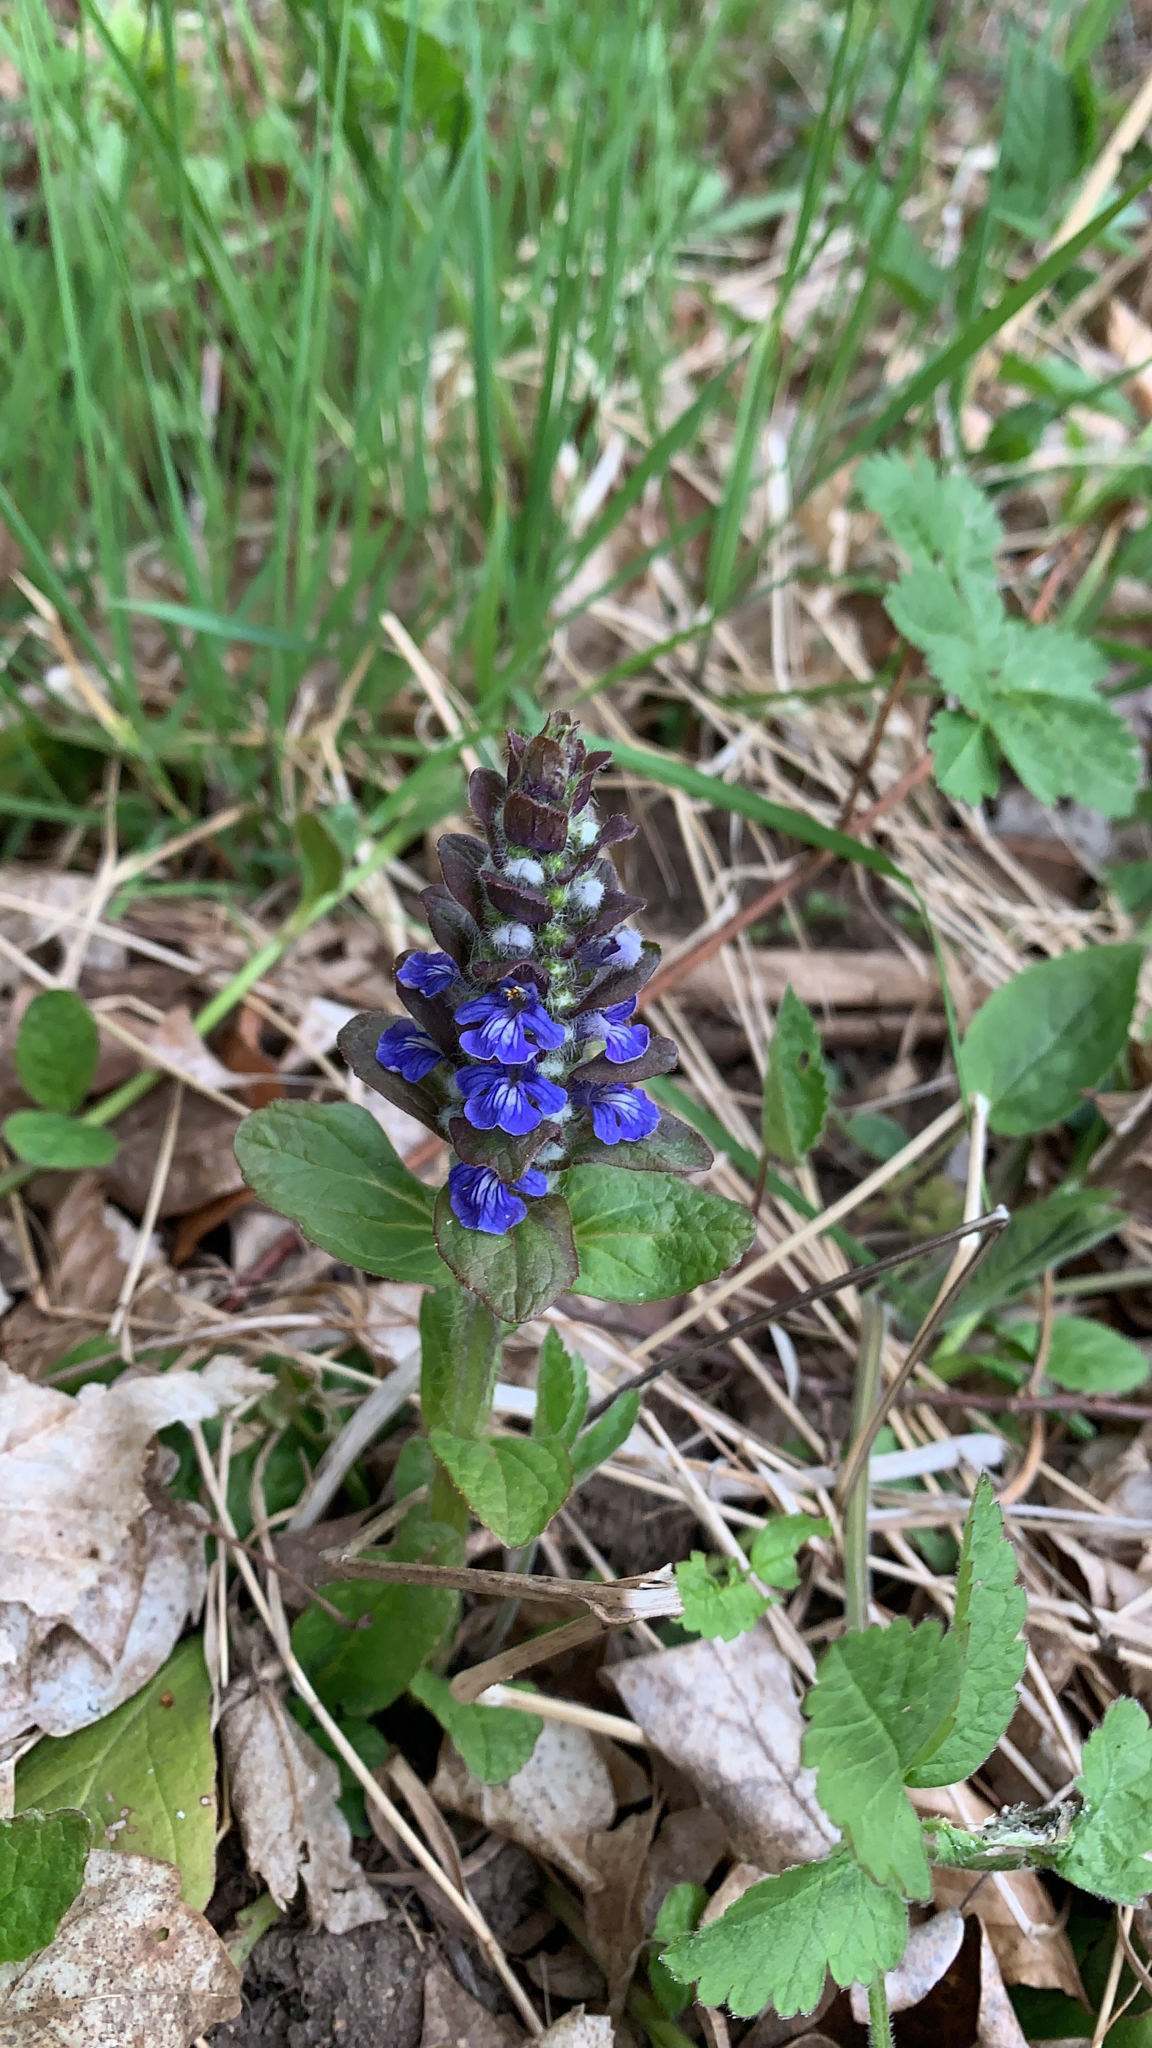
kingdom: Plantae
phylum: Tracheophyta
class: Magnoliopsida
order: Lamiales
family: Lamiaceae
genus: Ajuga
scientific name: Ajuga reptans
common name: Bugle
